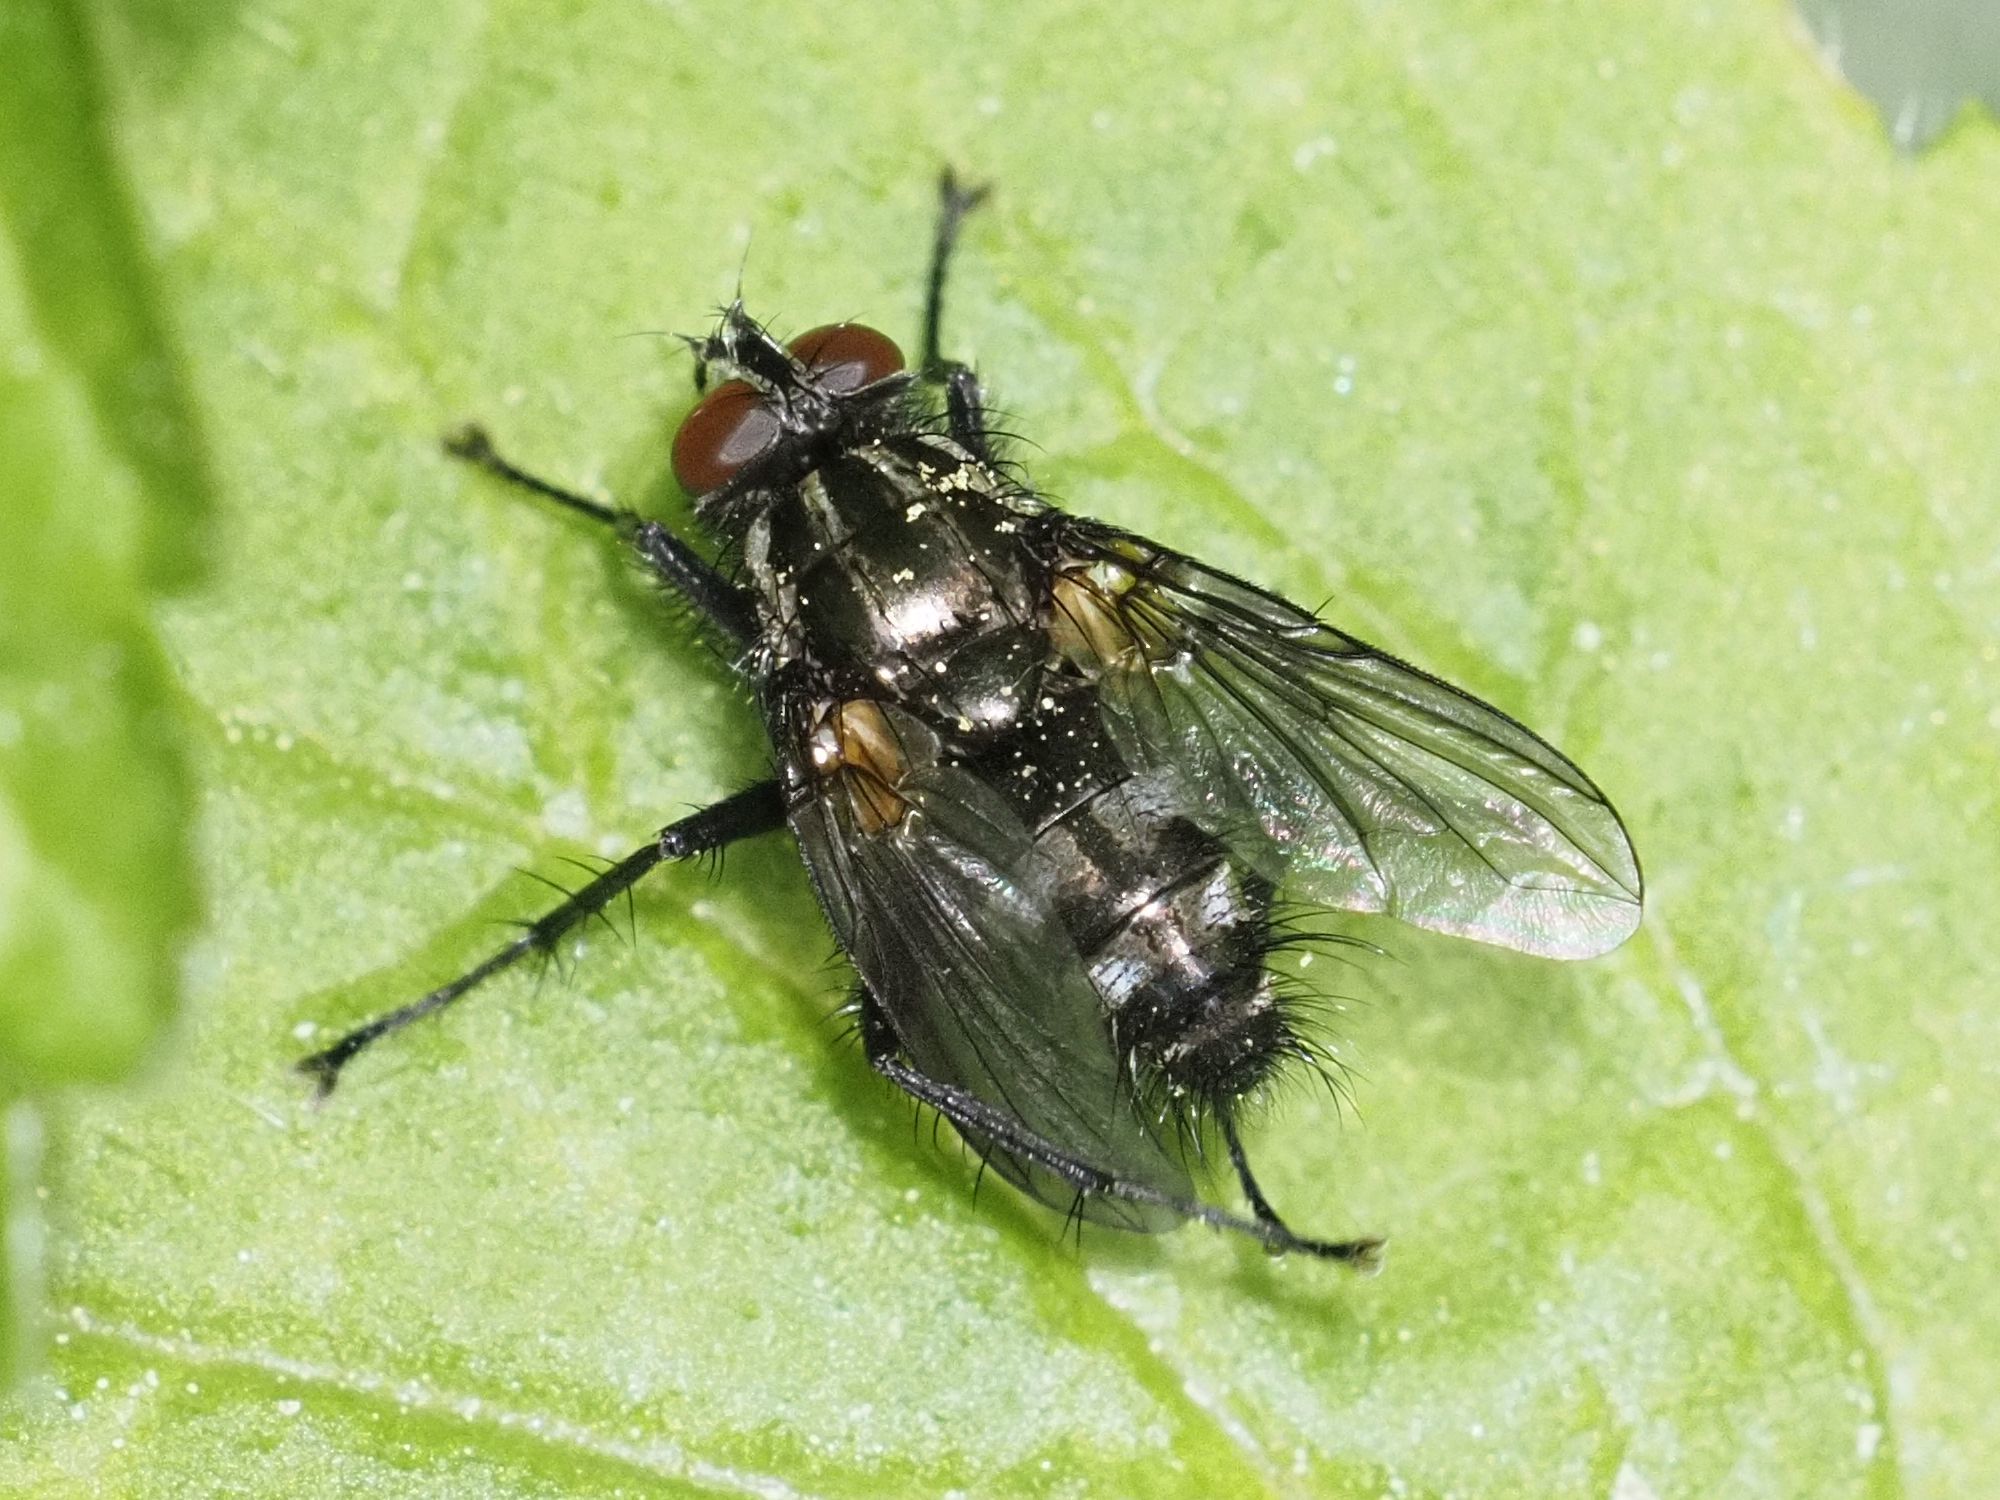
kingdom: Animalia
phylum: Arthropoda
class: Insecta
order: Diptera
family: Calliphoridae
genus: Rhinomorinia
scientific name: Rhinomorinia sarcophagina
